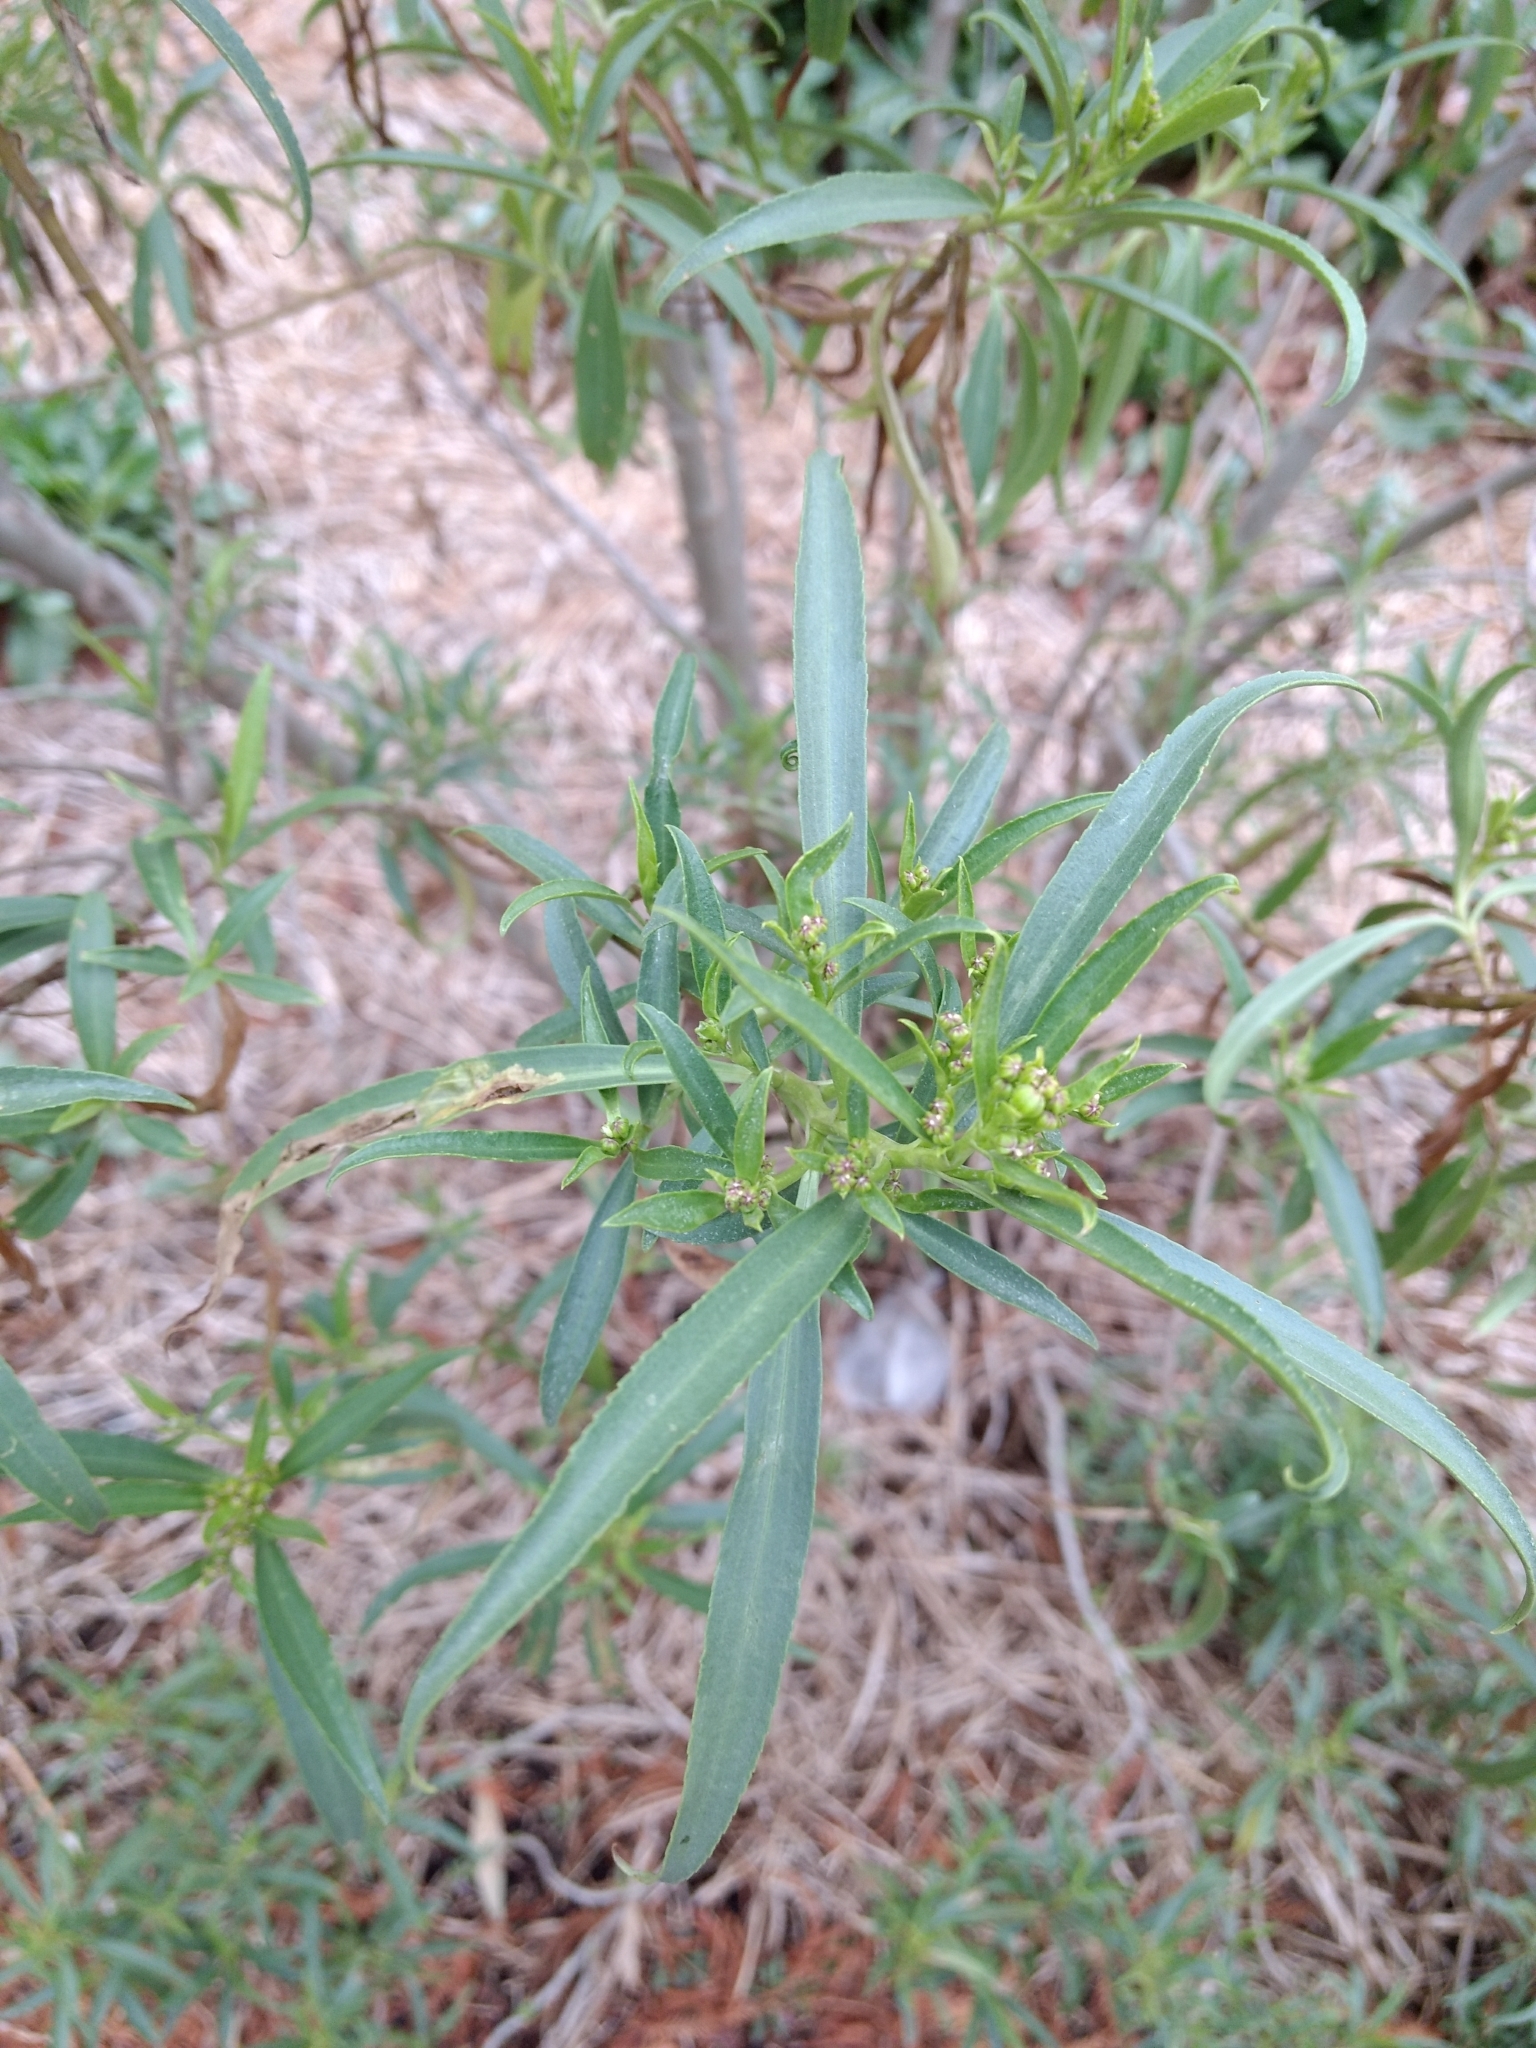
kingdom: Plantae
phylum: Tracheophyta
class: Magnoliopsida
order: Asterales
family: Asteraceae
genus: Barkleyanthus
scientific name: Barkleyanthus salicifolius
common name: Willow ragwort
